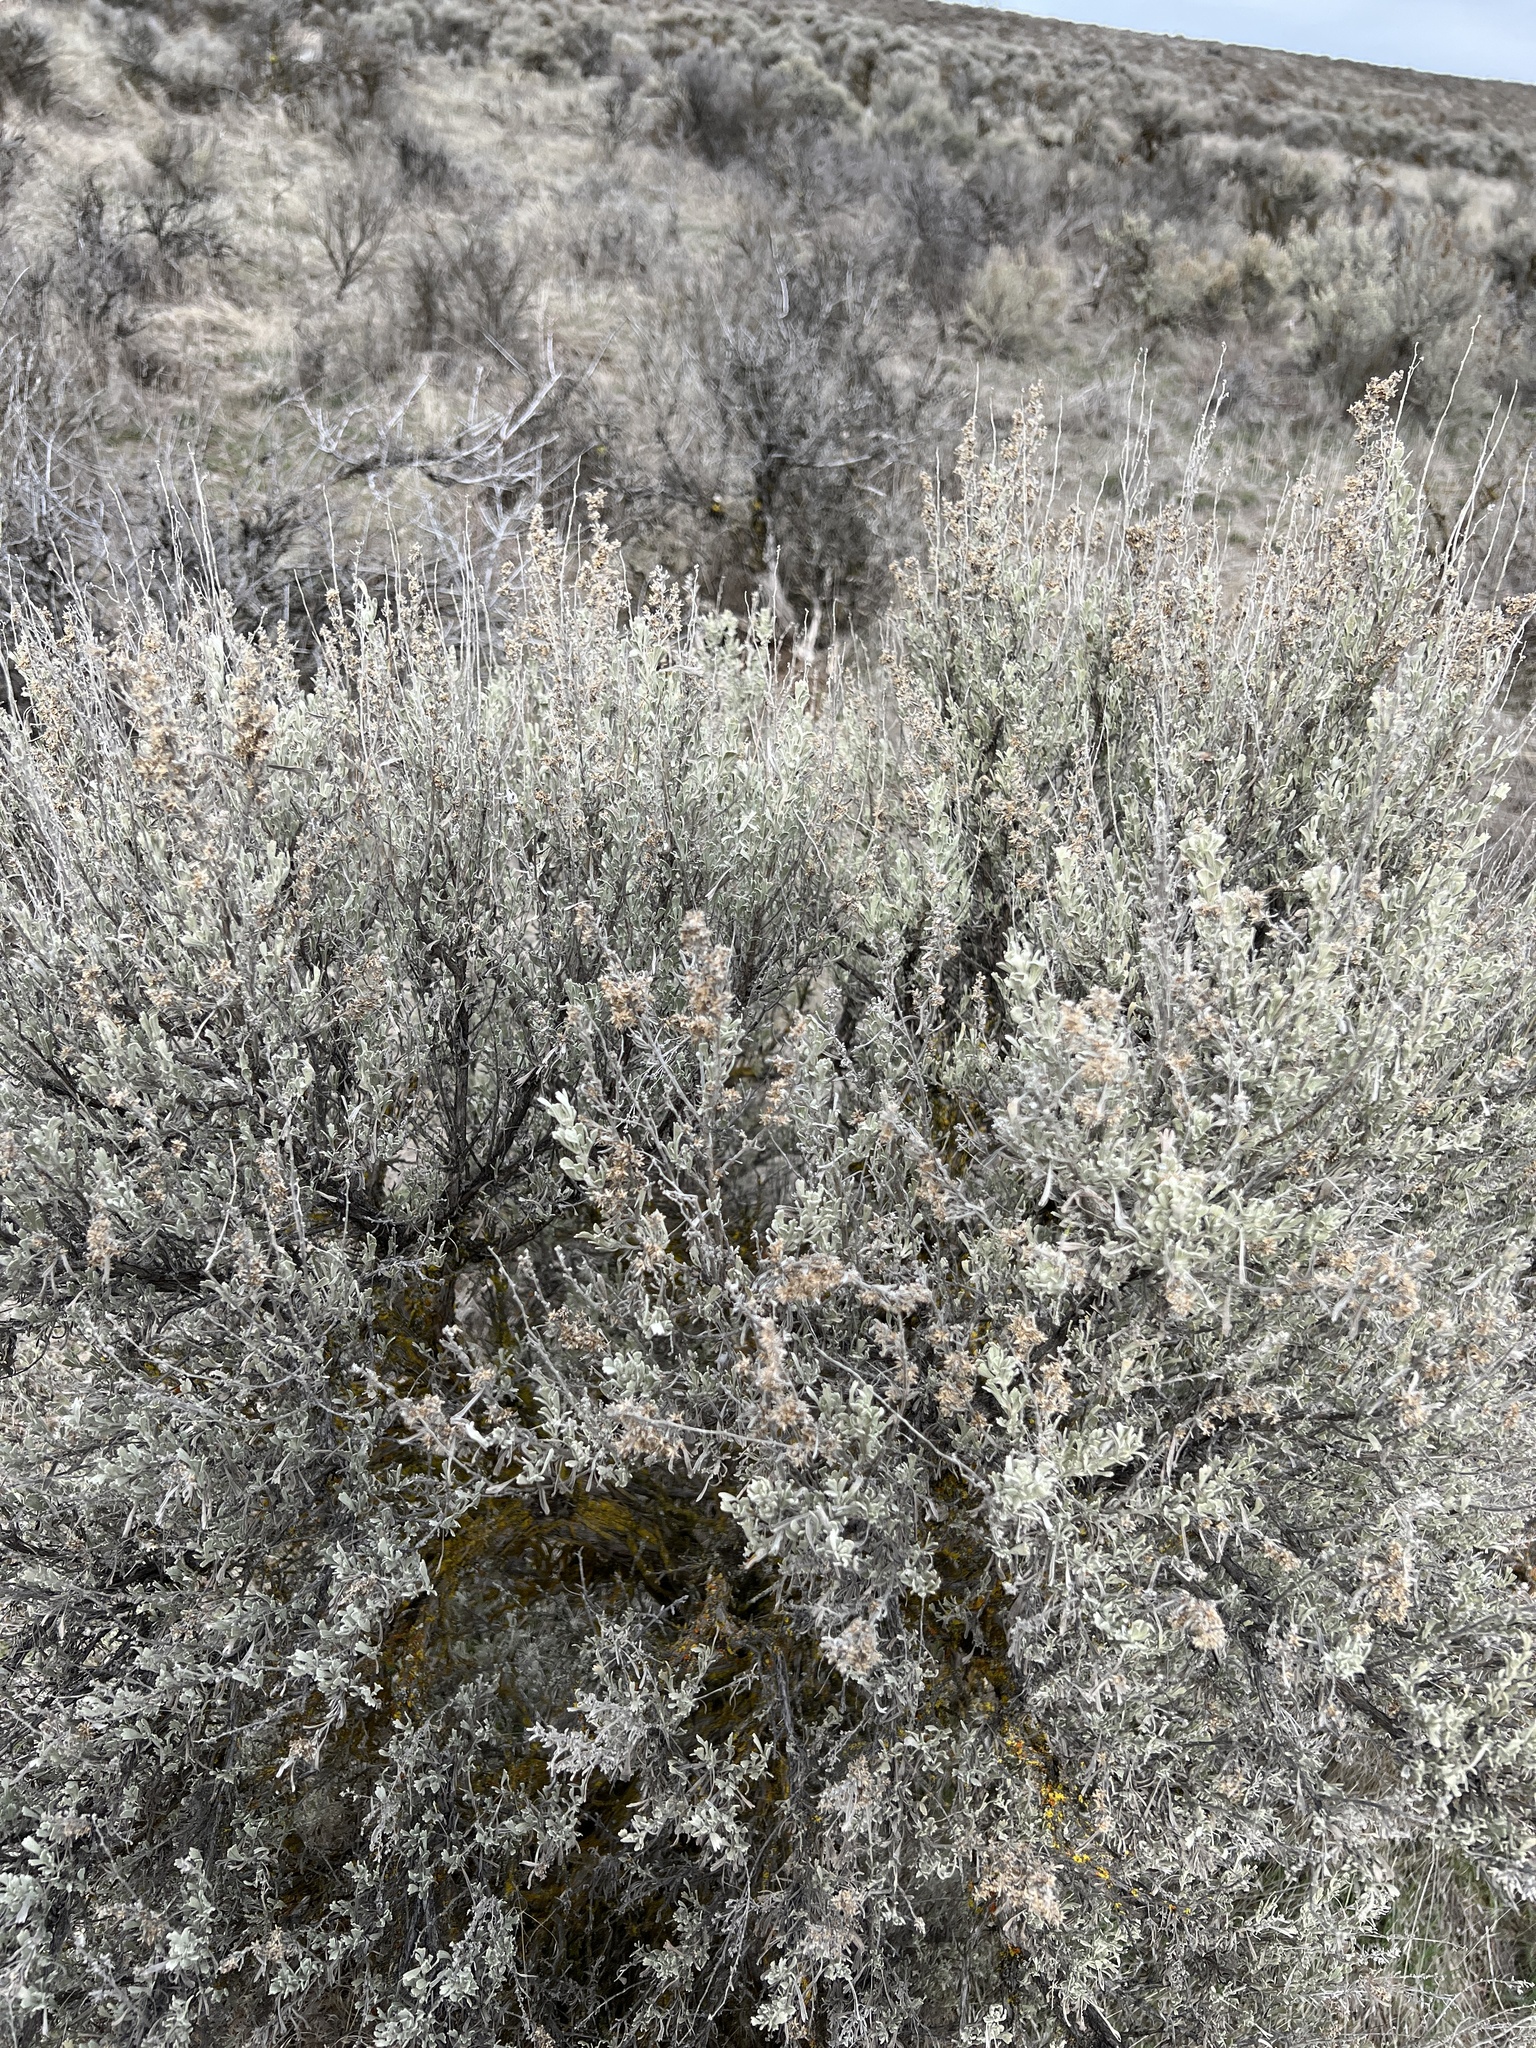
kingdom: Plantae
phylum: Tracheophyta
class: Magnoliopsida
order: Asterales
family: Asteraceae
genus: Artemisia
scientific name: Artemisia tridentata
